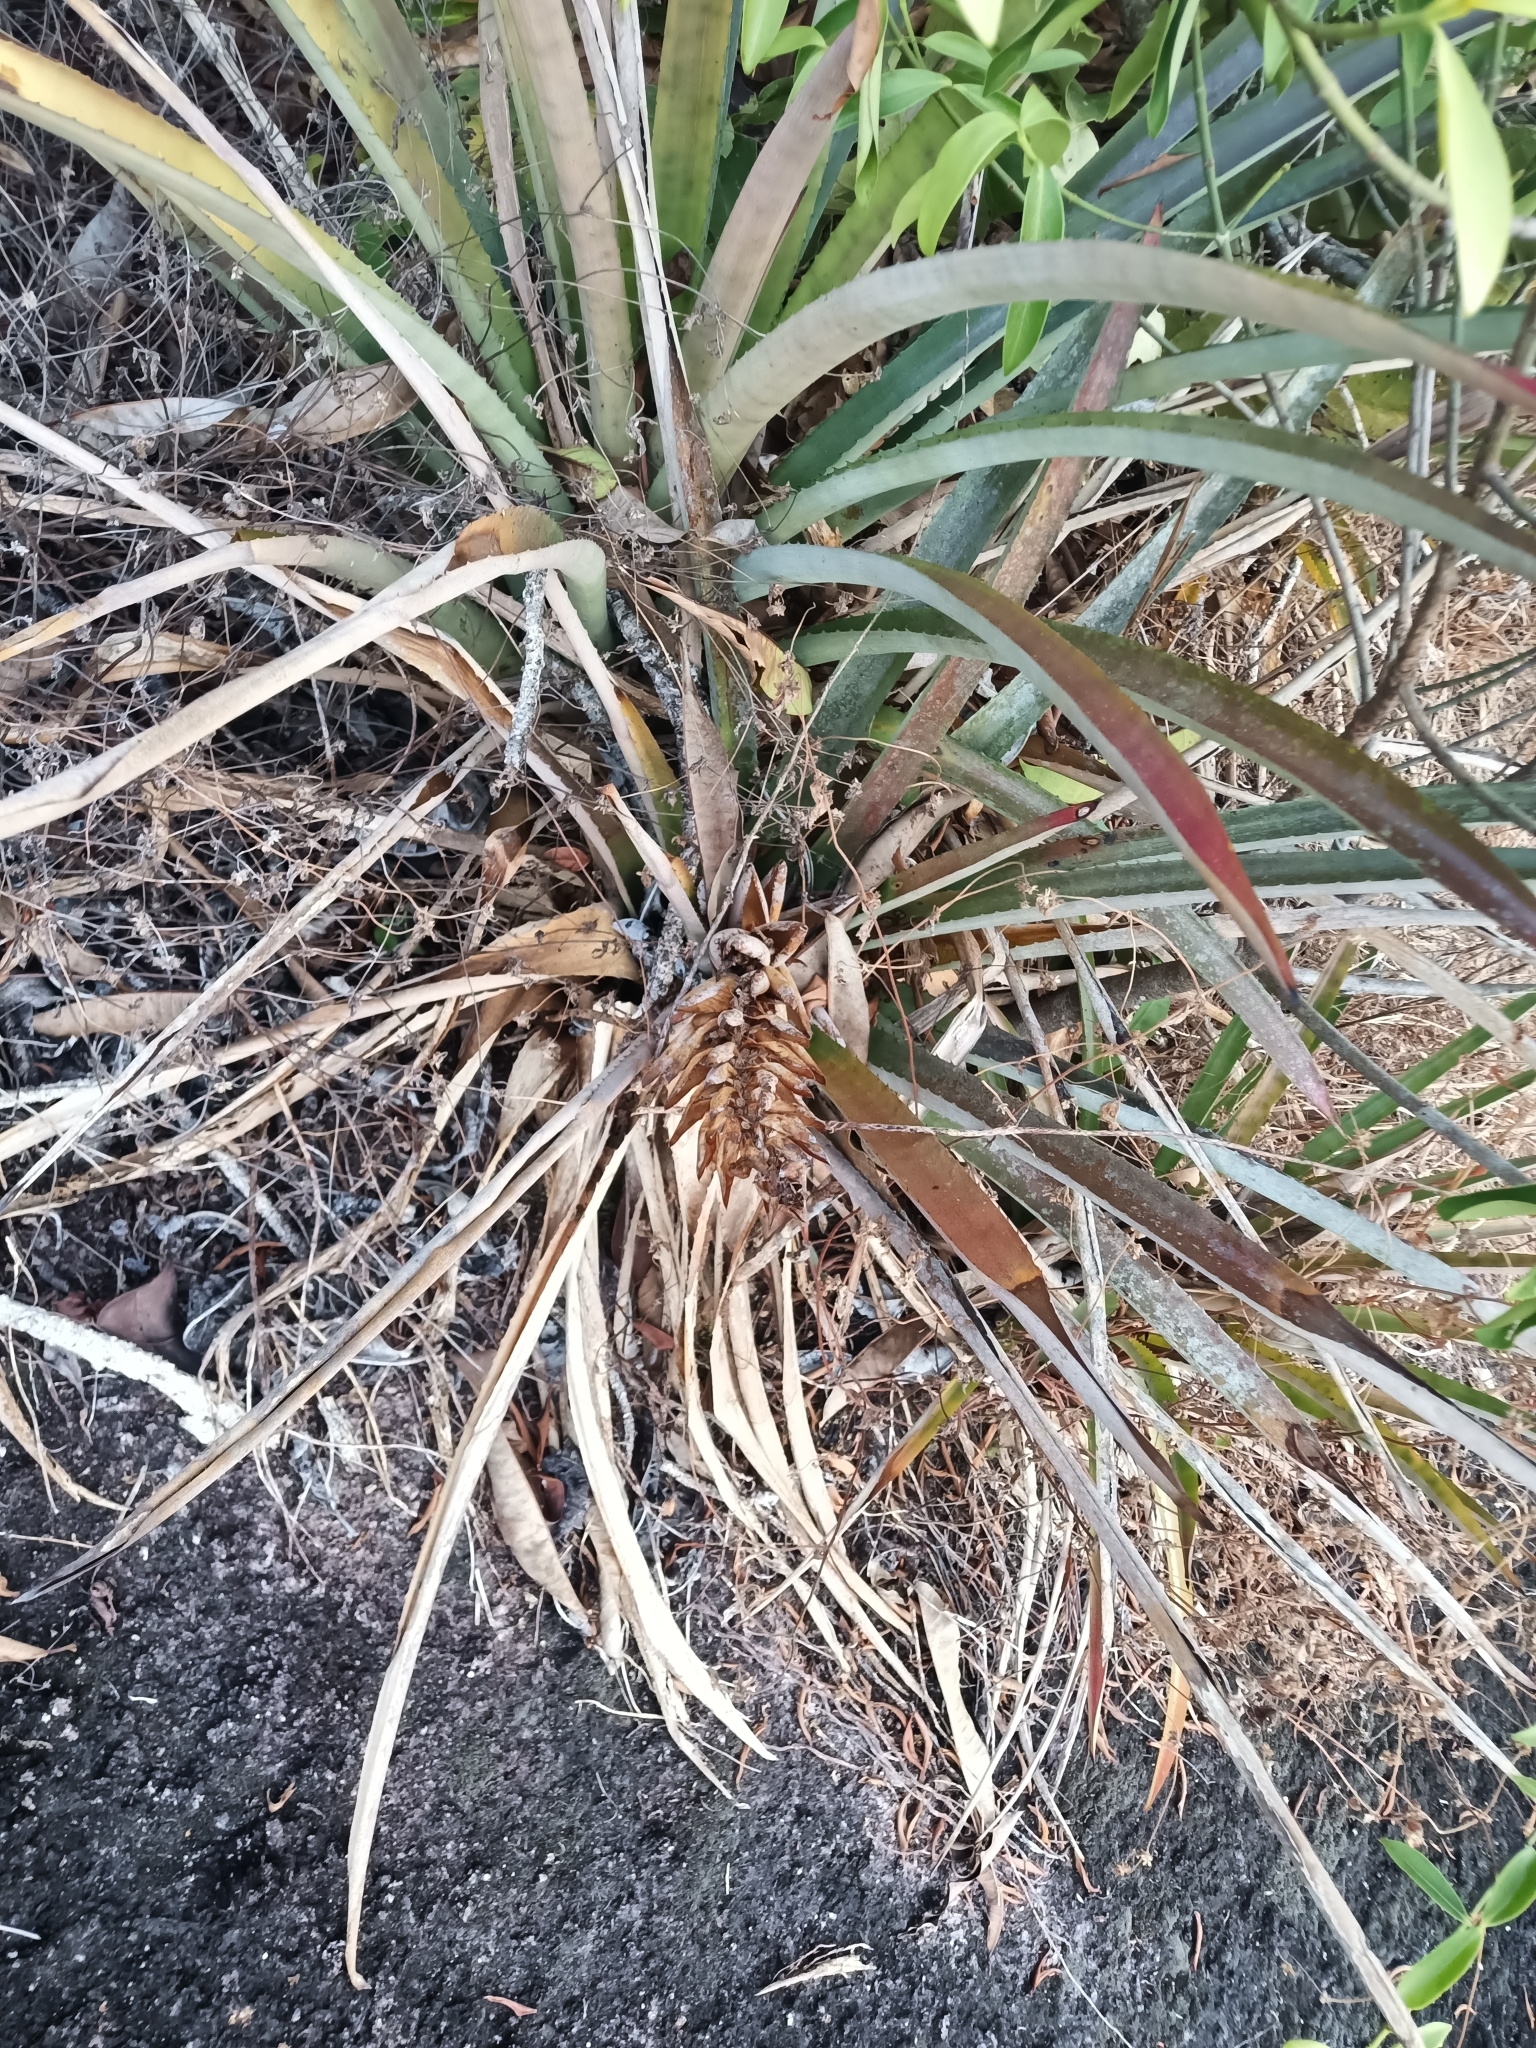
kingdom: Plantae
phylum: Tracheophyta
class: Liliopsida
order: Poales
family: Bromeliaceae
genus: Aechmea
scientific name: Aechmea vallerandii
